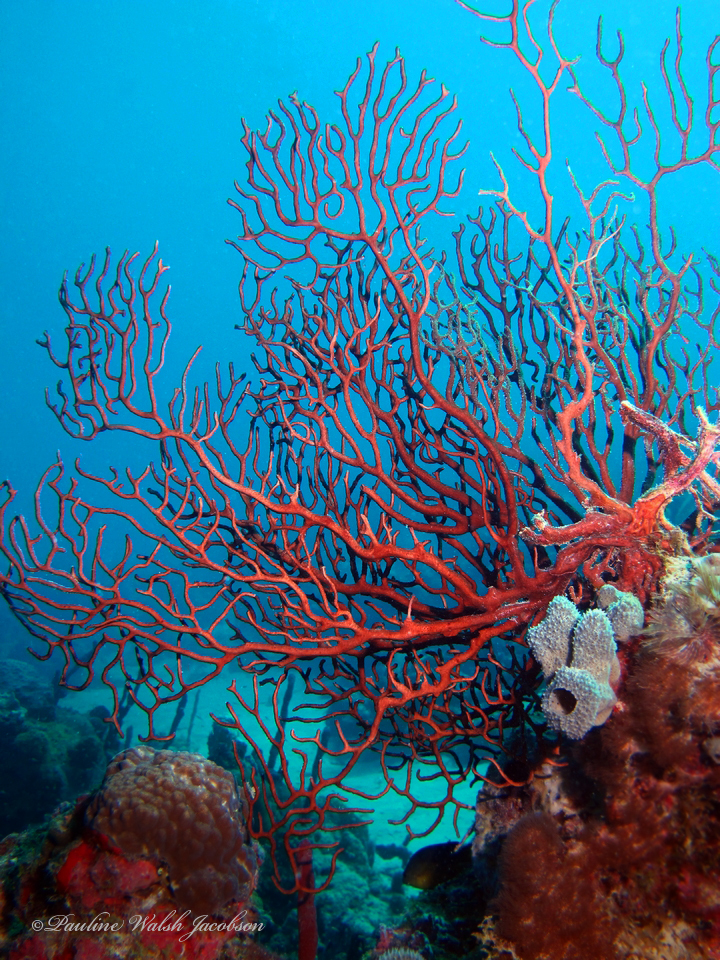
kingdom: Animalia
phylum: Cnidaria
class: Anthozoa
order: Malacalcyonacea
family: Melithaeidae
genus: Iciligorgia
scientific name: Iciligorgia schrammi
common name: Black sea fan
